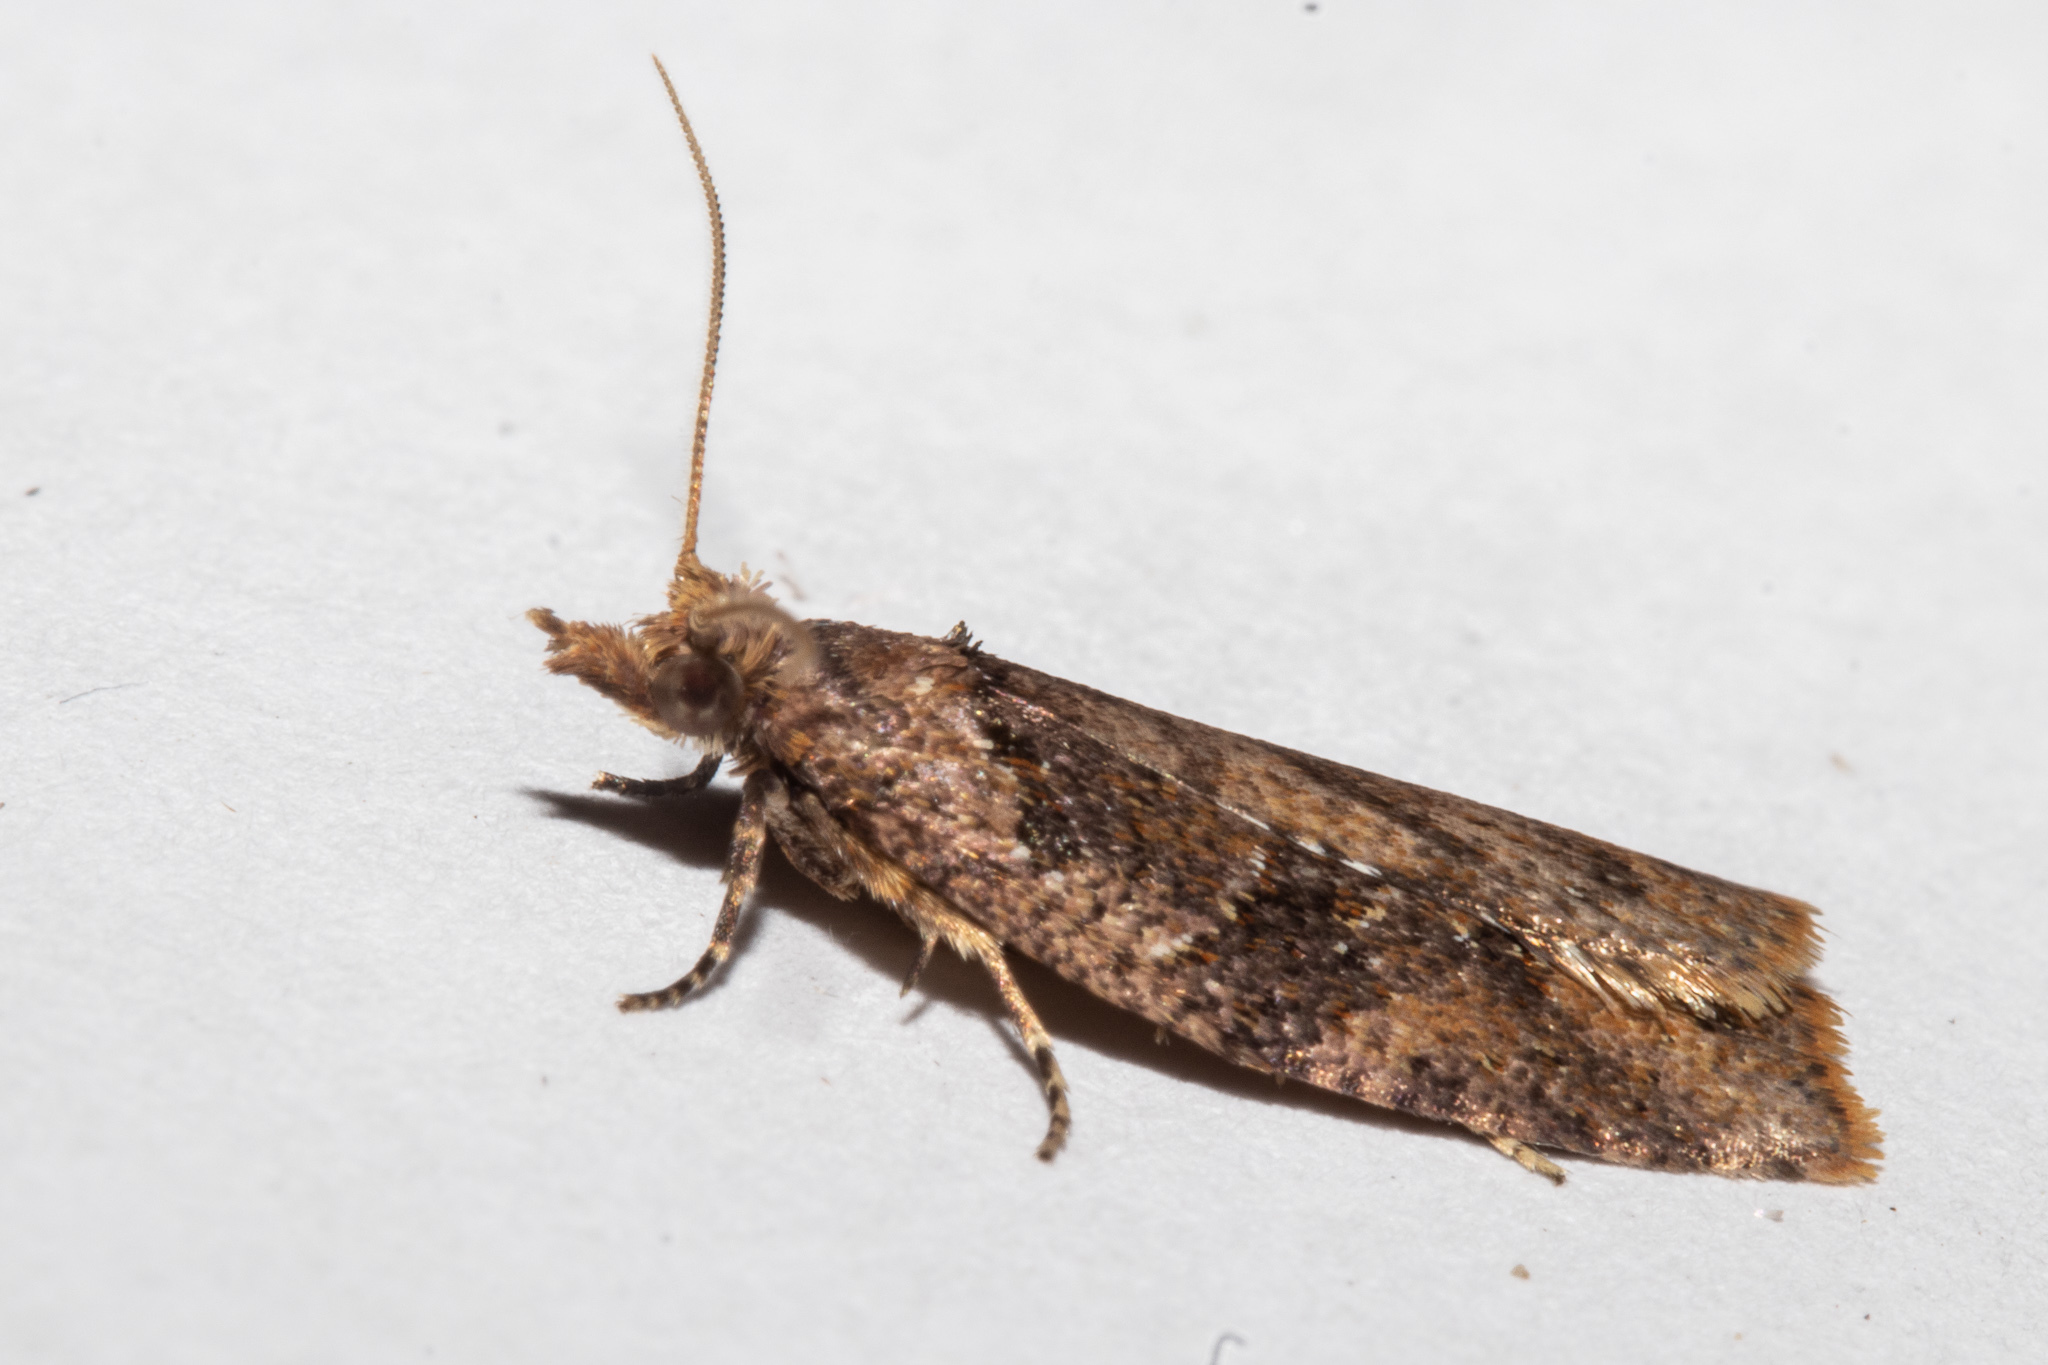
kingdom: Animalia
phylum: Arthropoda
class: Insecta
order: Lepidoptera
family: Tortricidae
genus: Ctenopseustis
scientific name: Ctenopseustis obliquana
